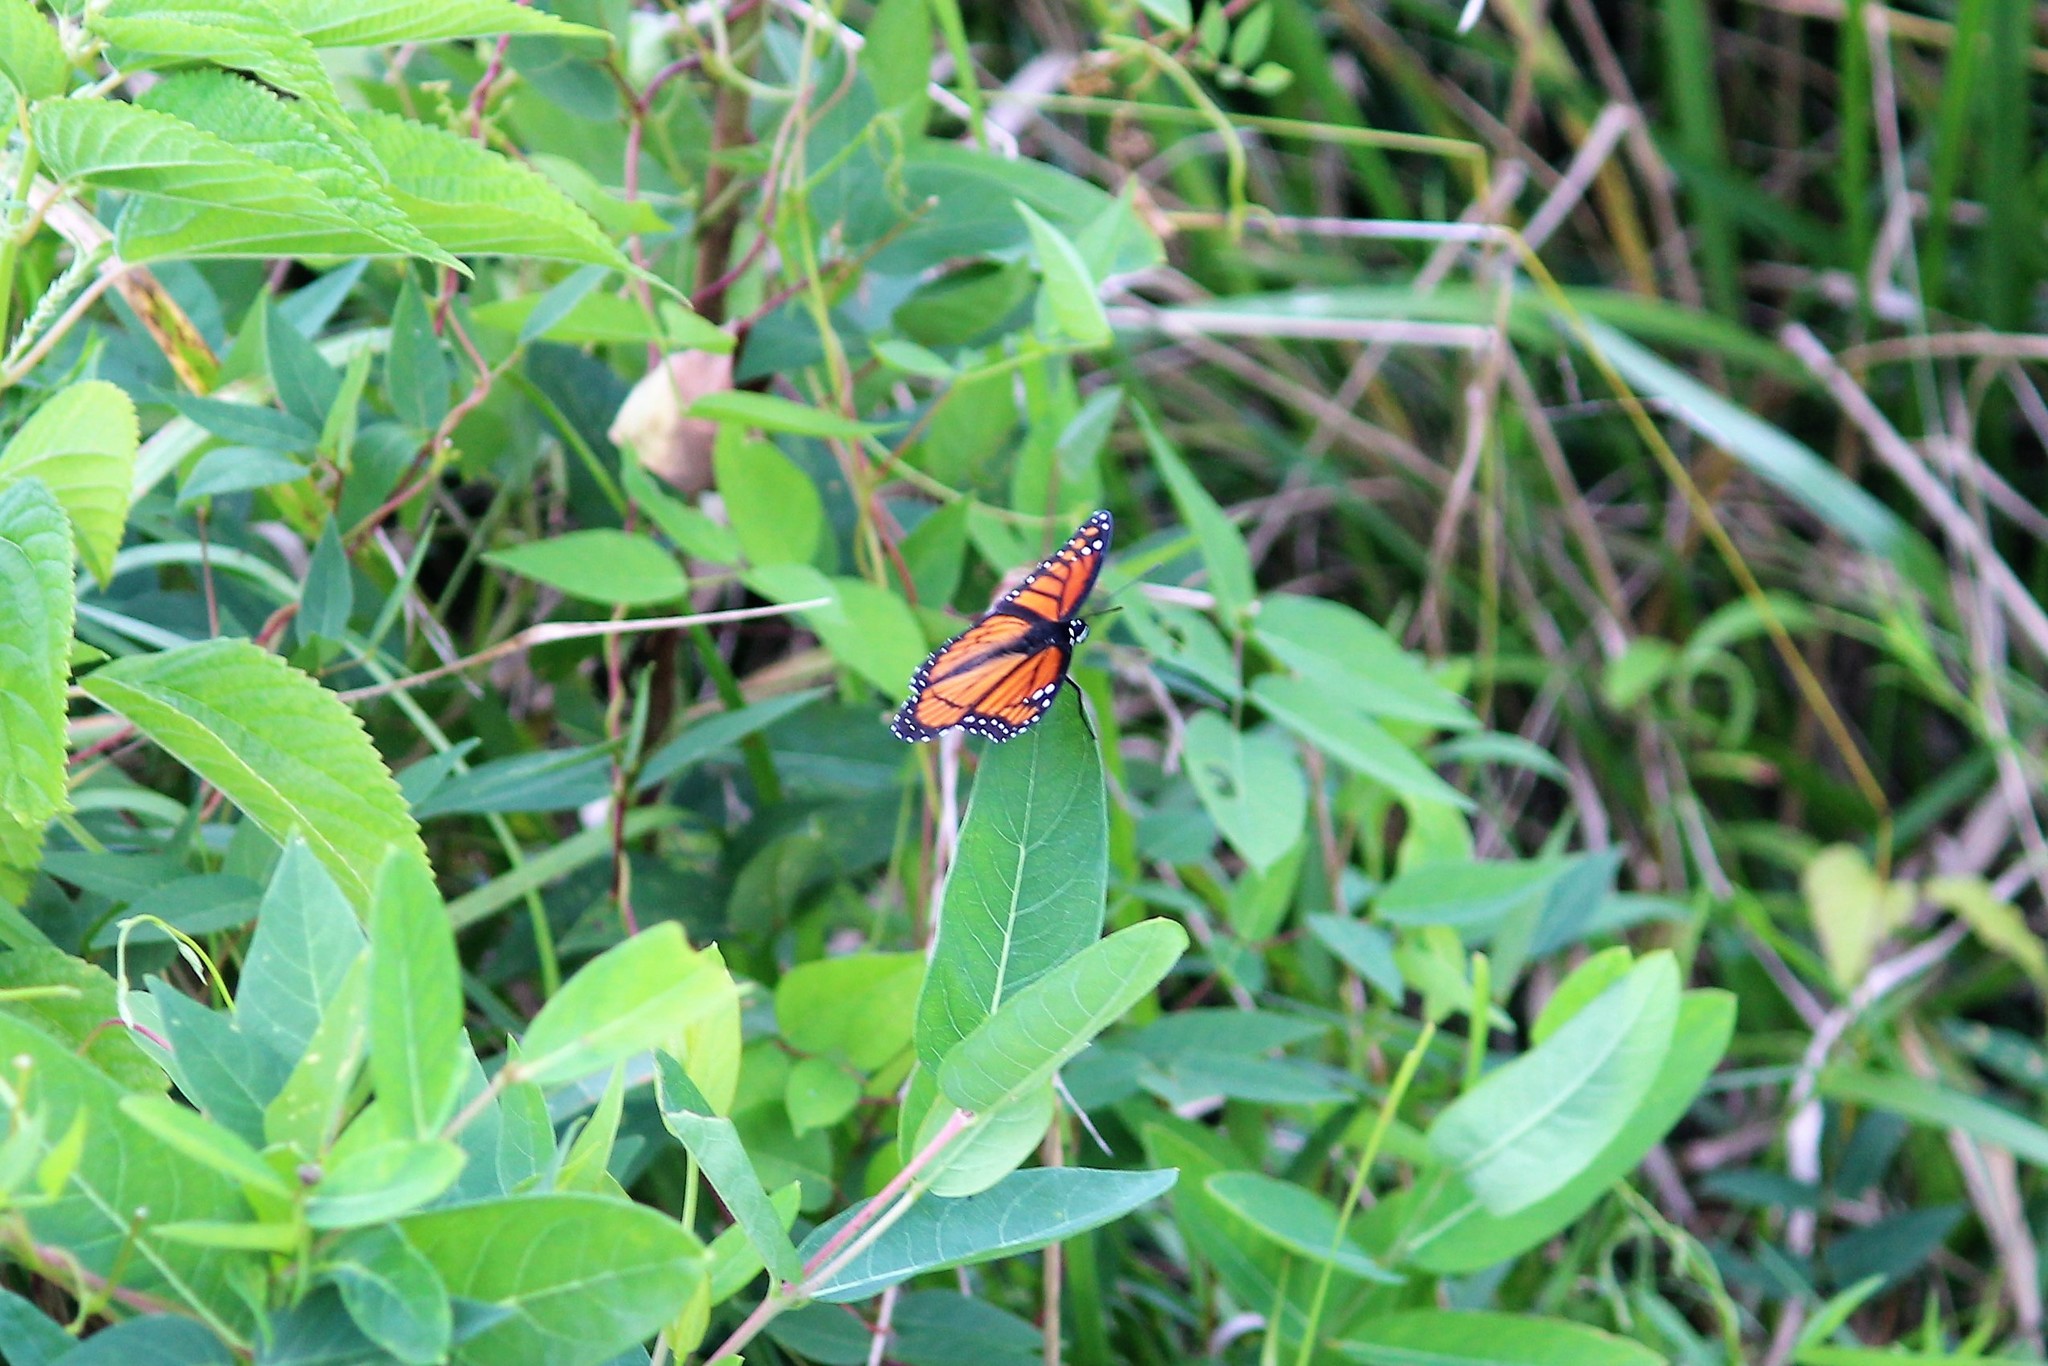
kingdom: Animalia
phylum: Arthropoda
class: Insecta
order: Lepidoptera
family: Nymphalidae
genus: Limenitis
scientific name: Limenitis archippus
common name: Viceroy
